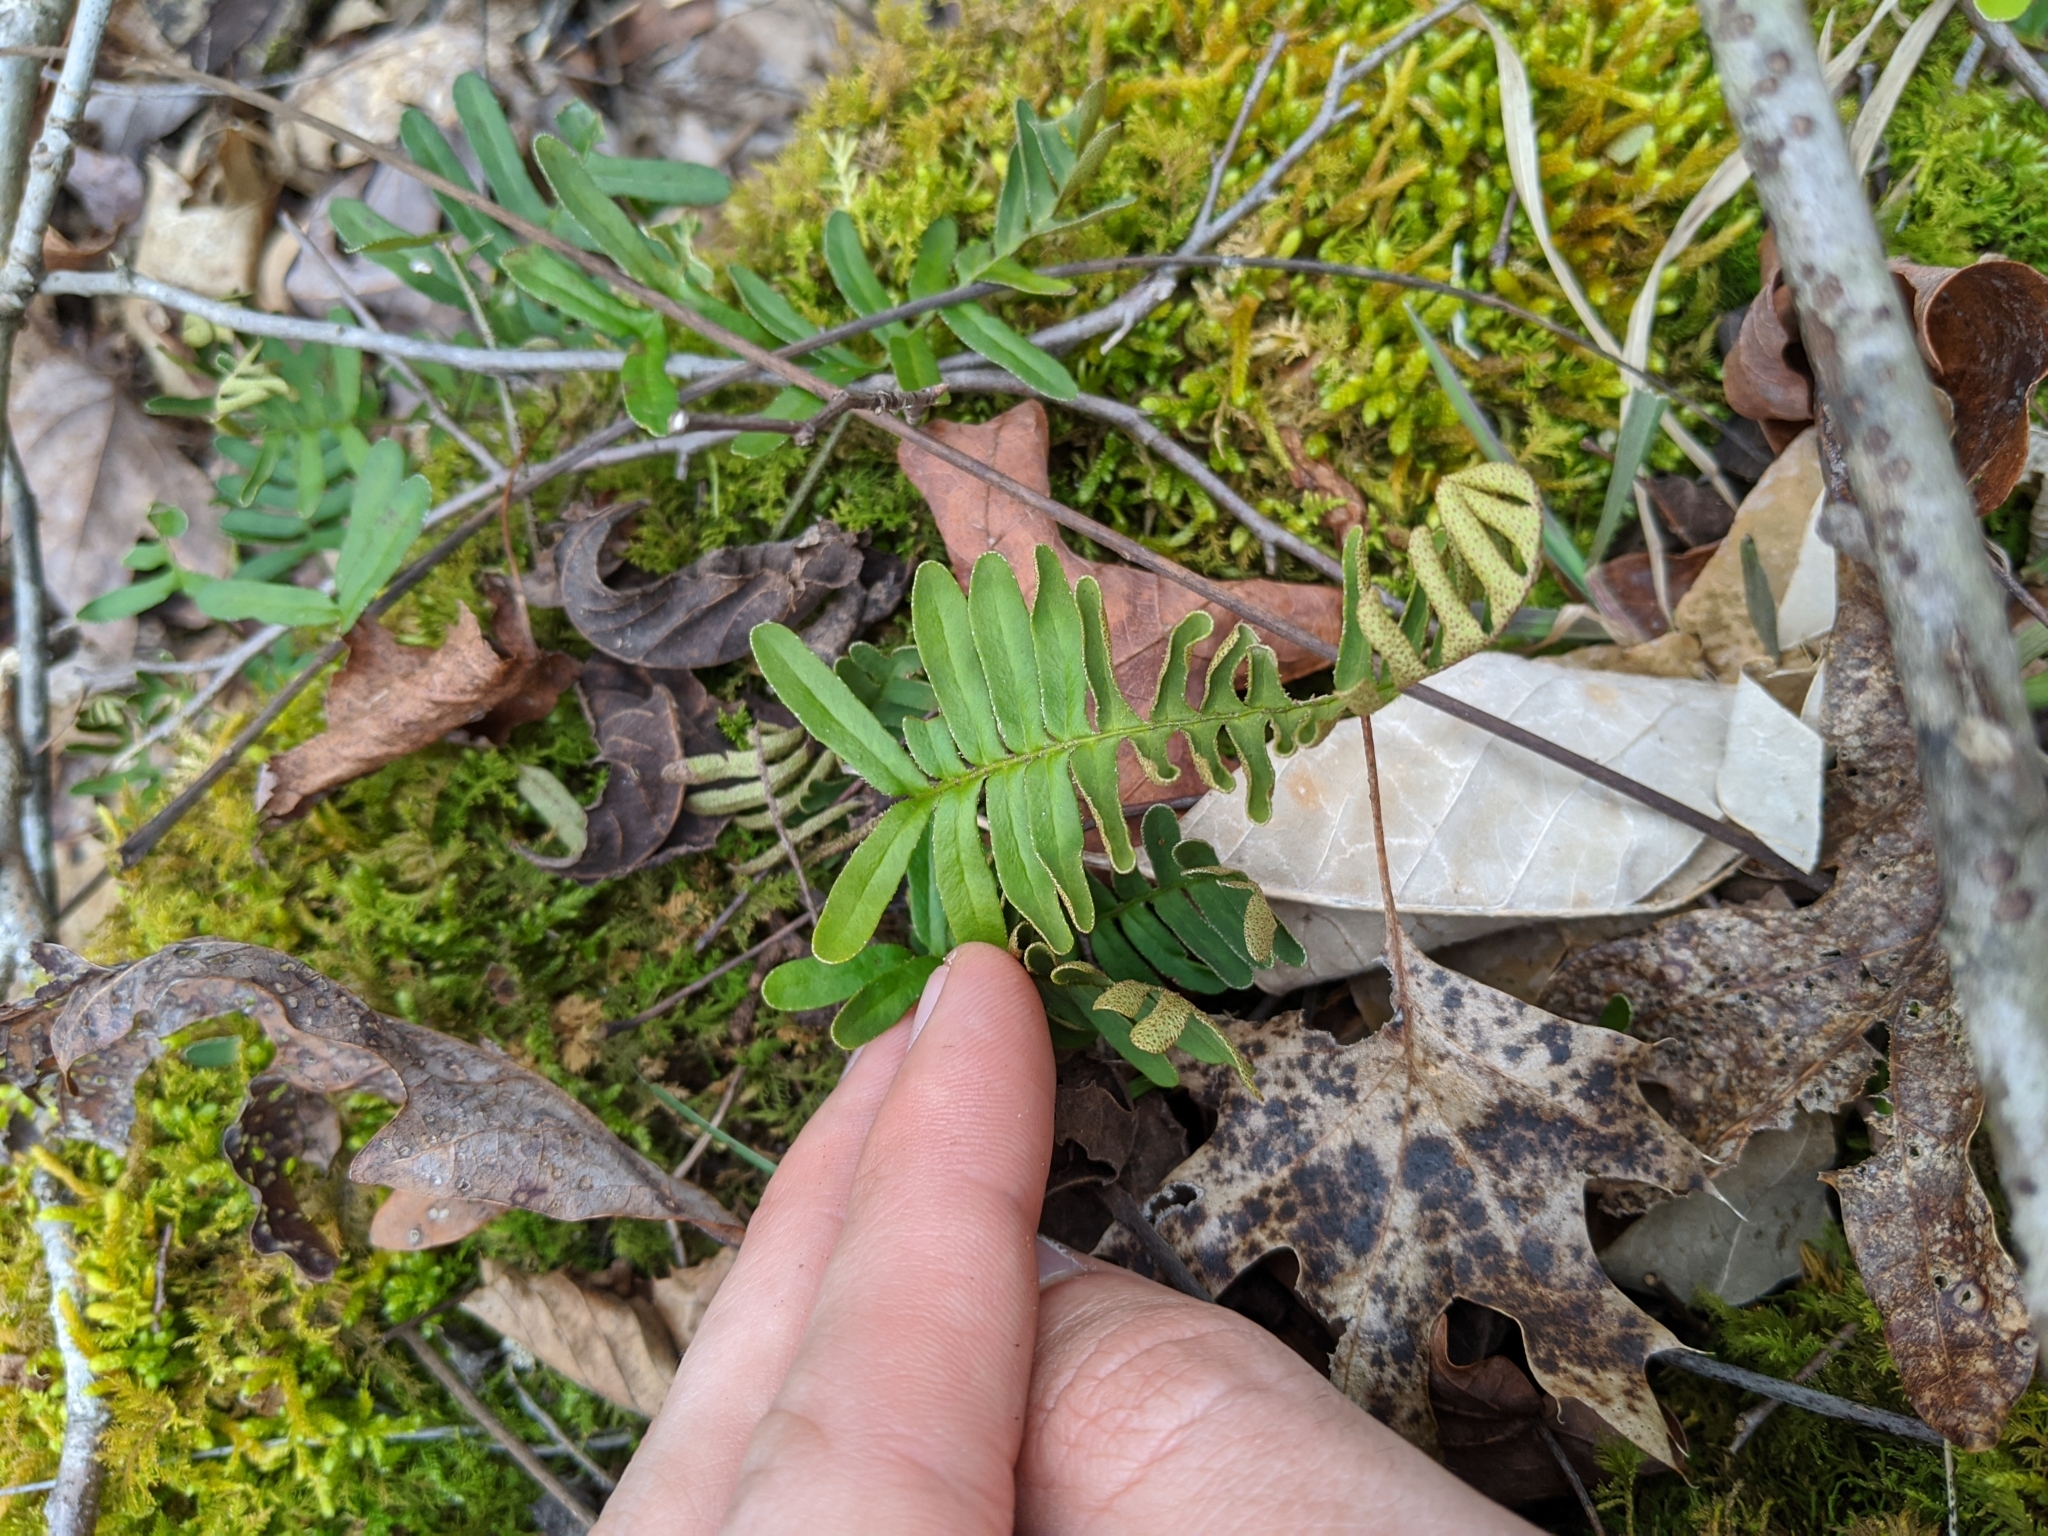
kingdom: Plantae
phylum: Tracheophyta
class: Polypodiopsida
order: Polypodiales
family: Polypodiaceae
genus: Pleopeltis
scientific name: Pleopeltis michauxiana
